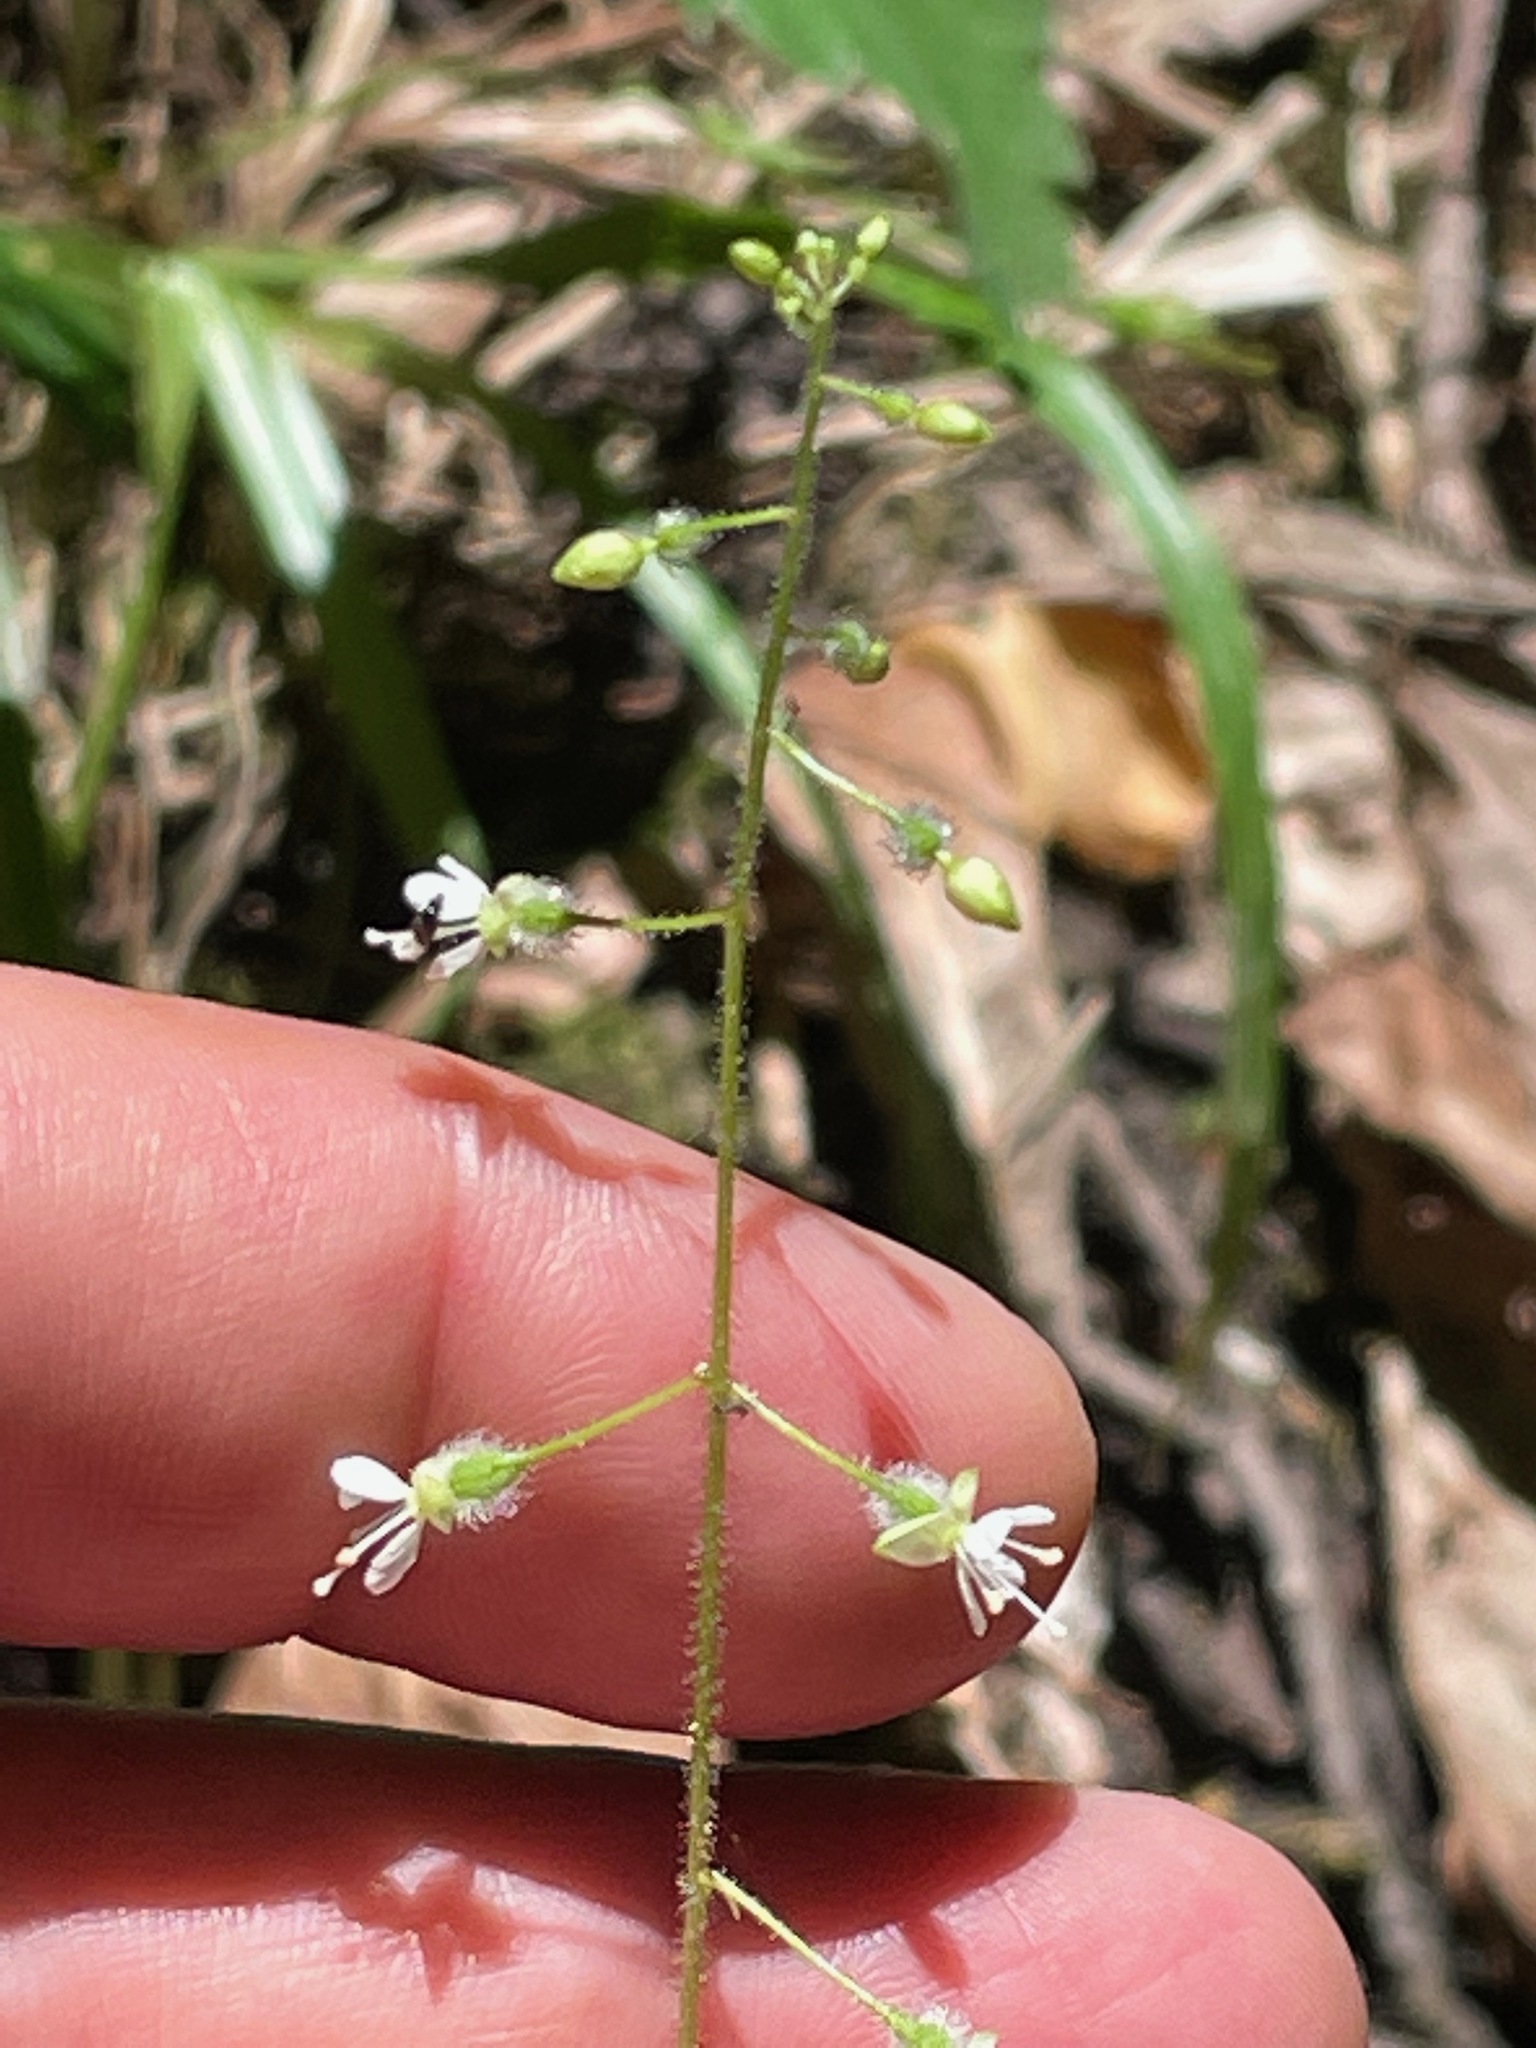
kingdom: Plantae
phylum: Tracheophyta
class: Magnoliopsida
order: Myrtales
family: Onagraceae
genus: Circaea
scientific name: Circaea canadensis
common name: Broad-leaved enchanter's nightshade
